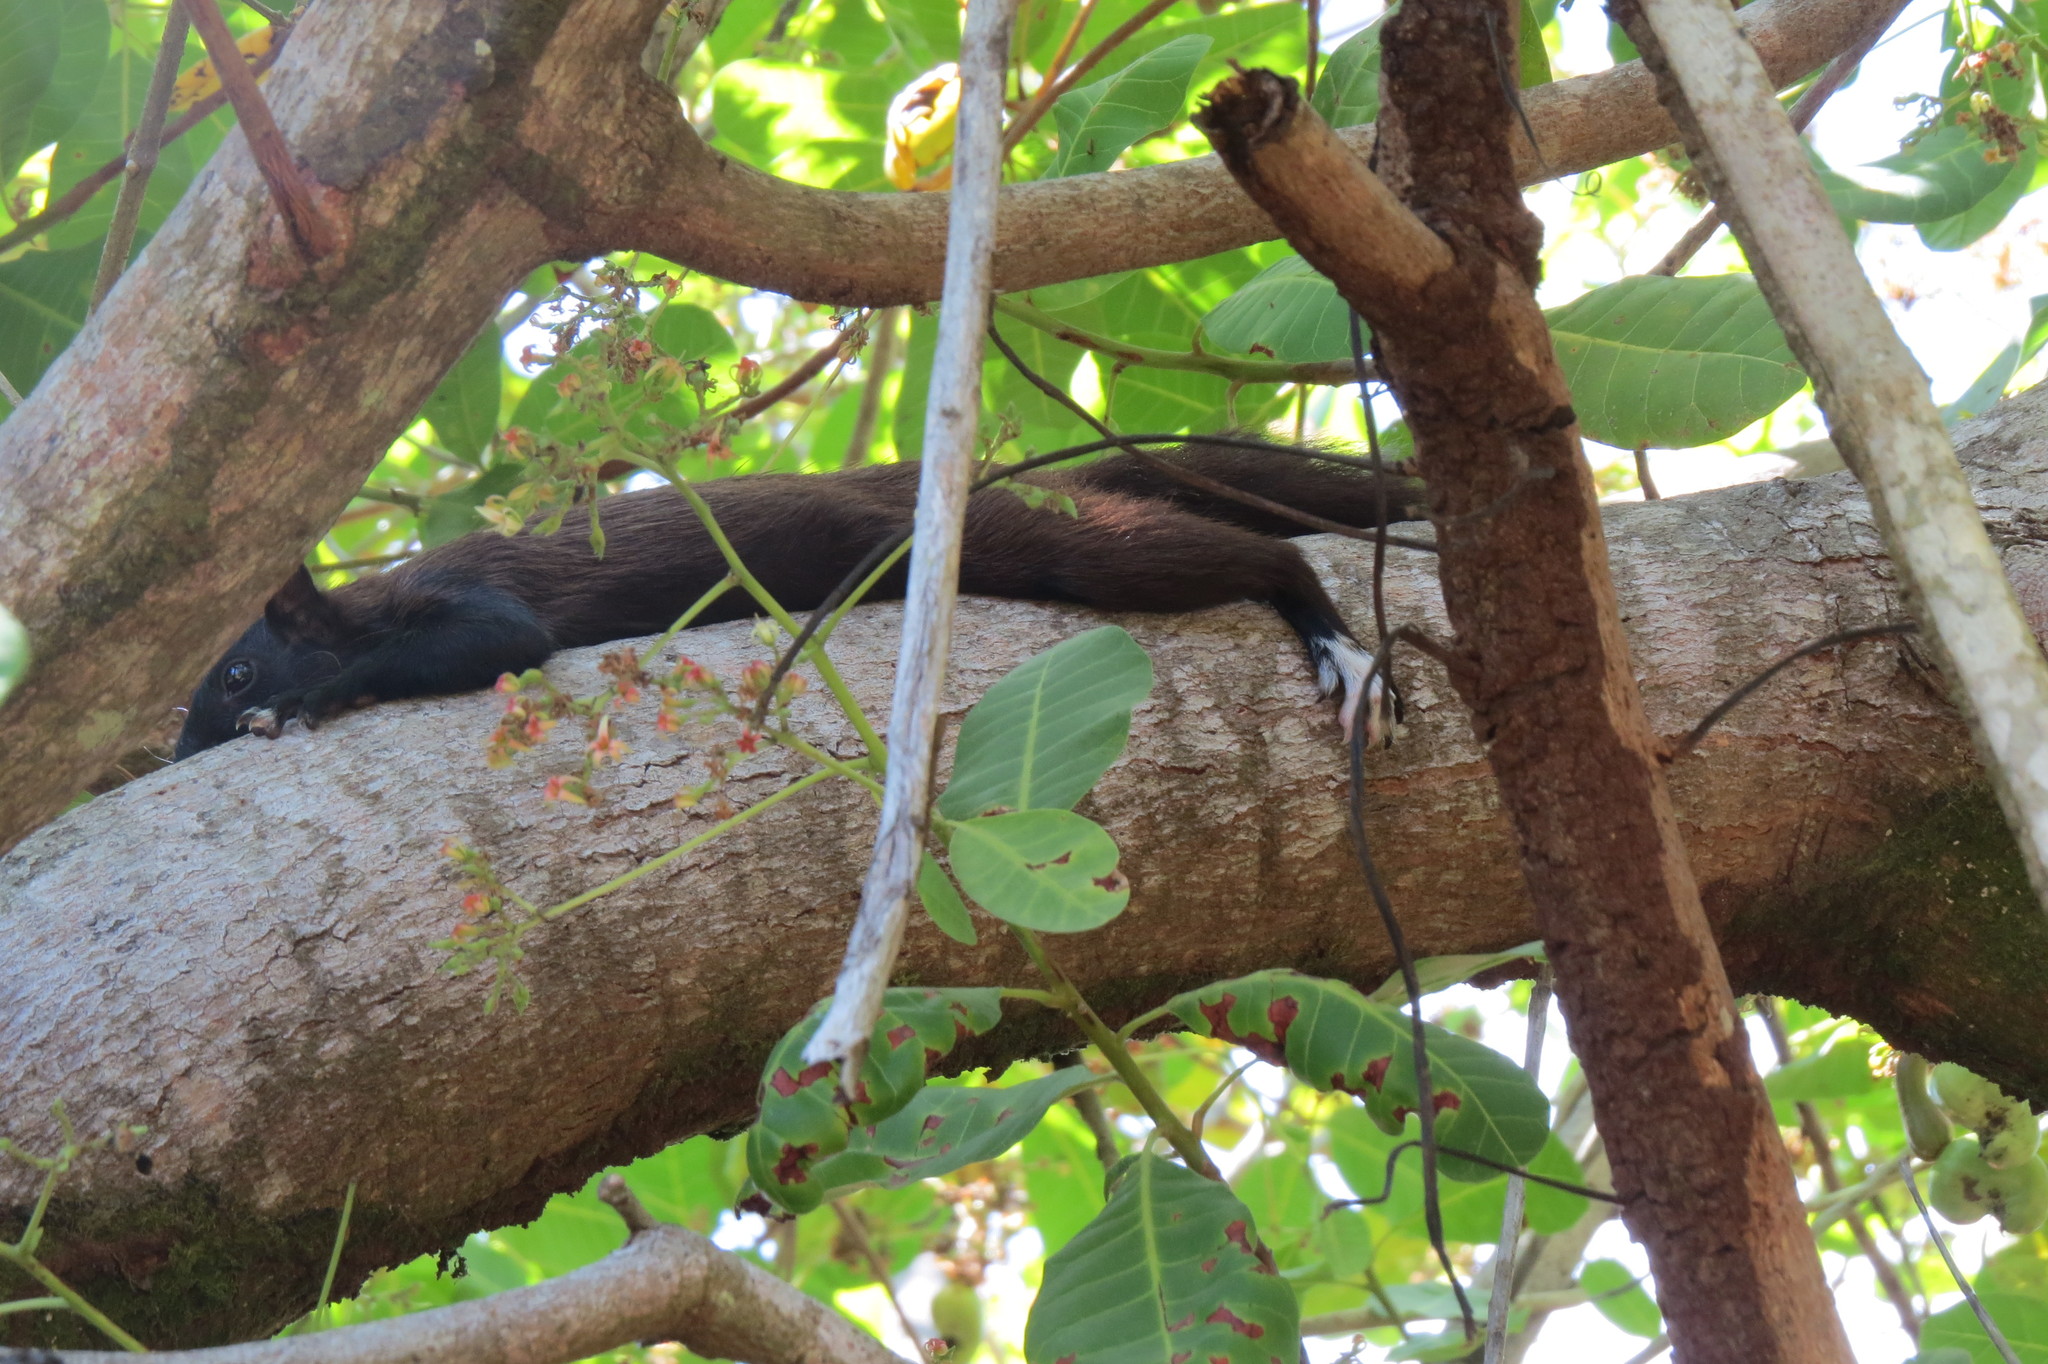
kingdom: Animalia
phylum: Chordata
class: Mammalia
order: Rodentia
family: Sciuridae
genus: Sciurus
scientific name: Sciurus variegatoides
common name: Variegated squirrel
